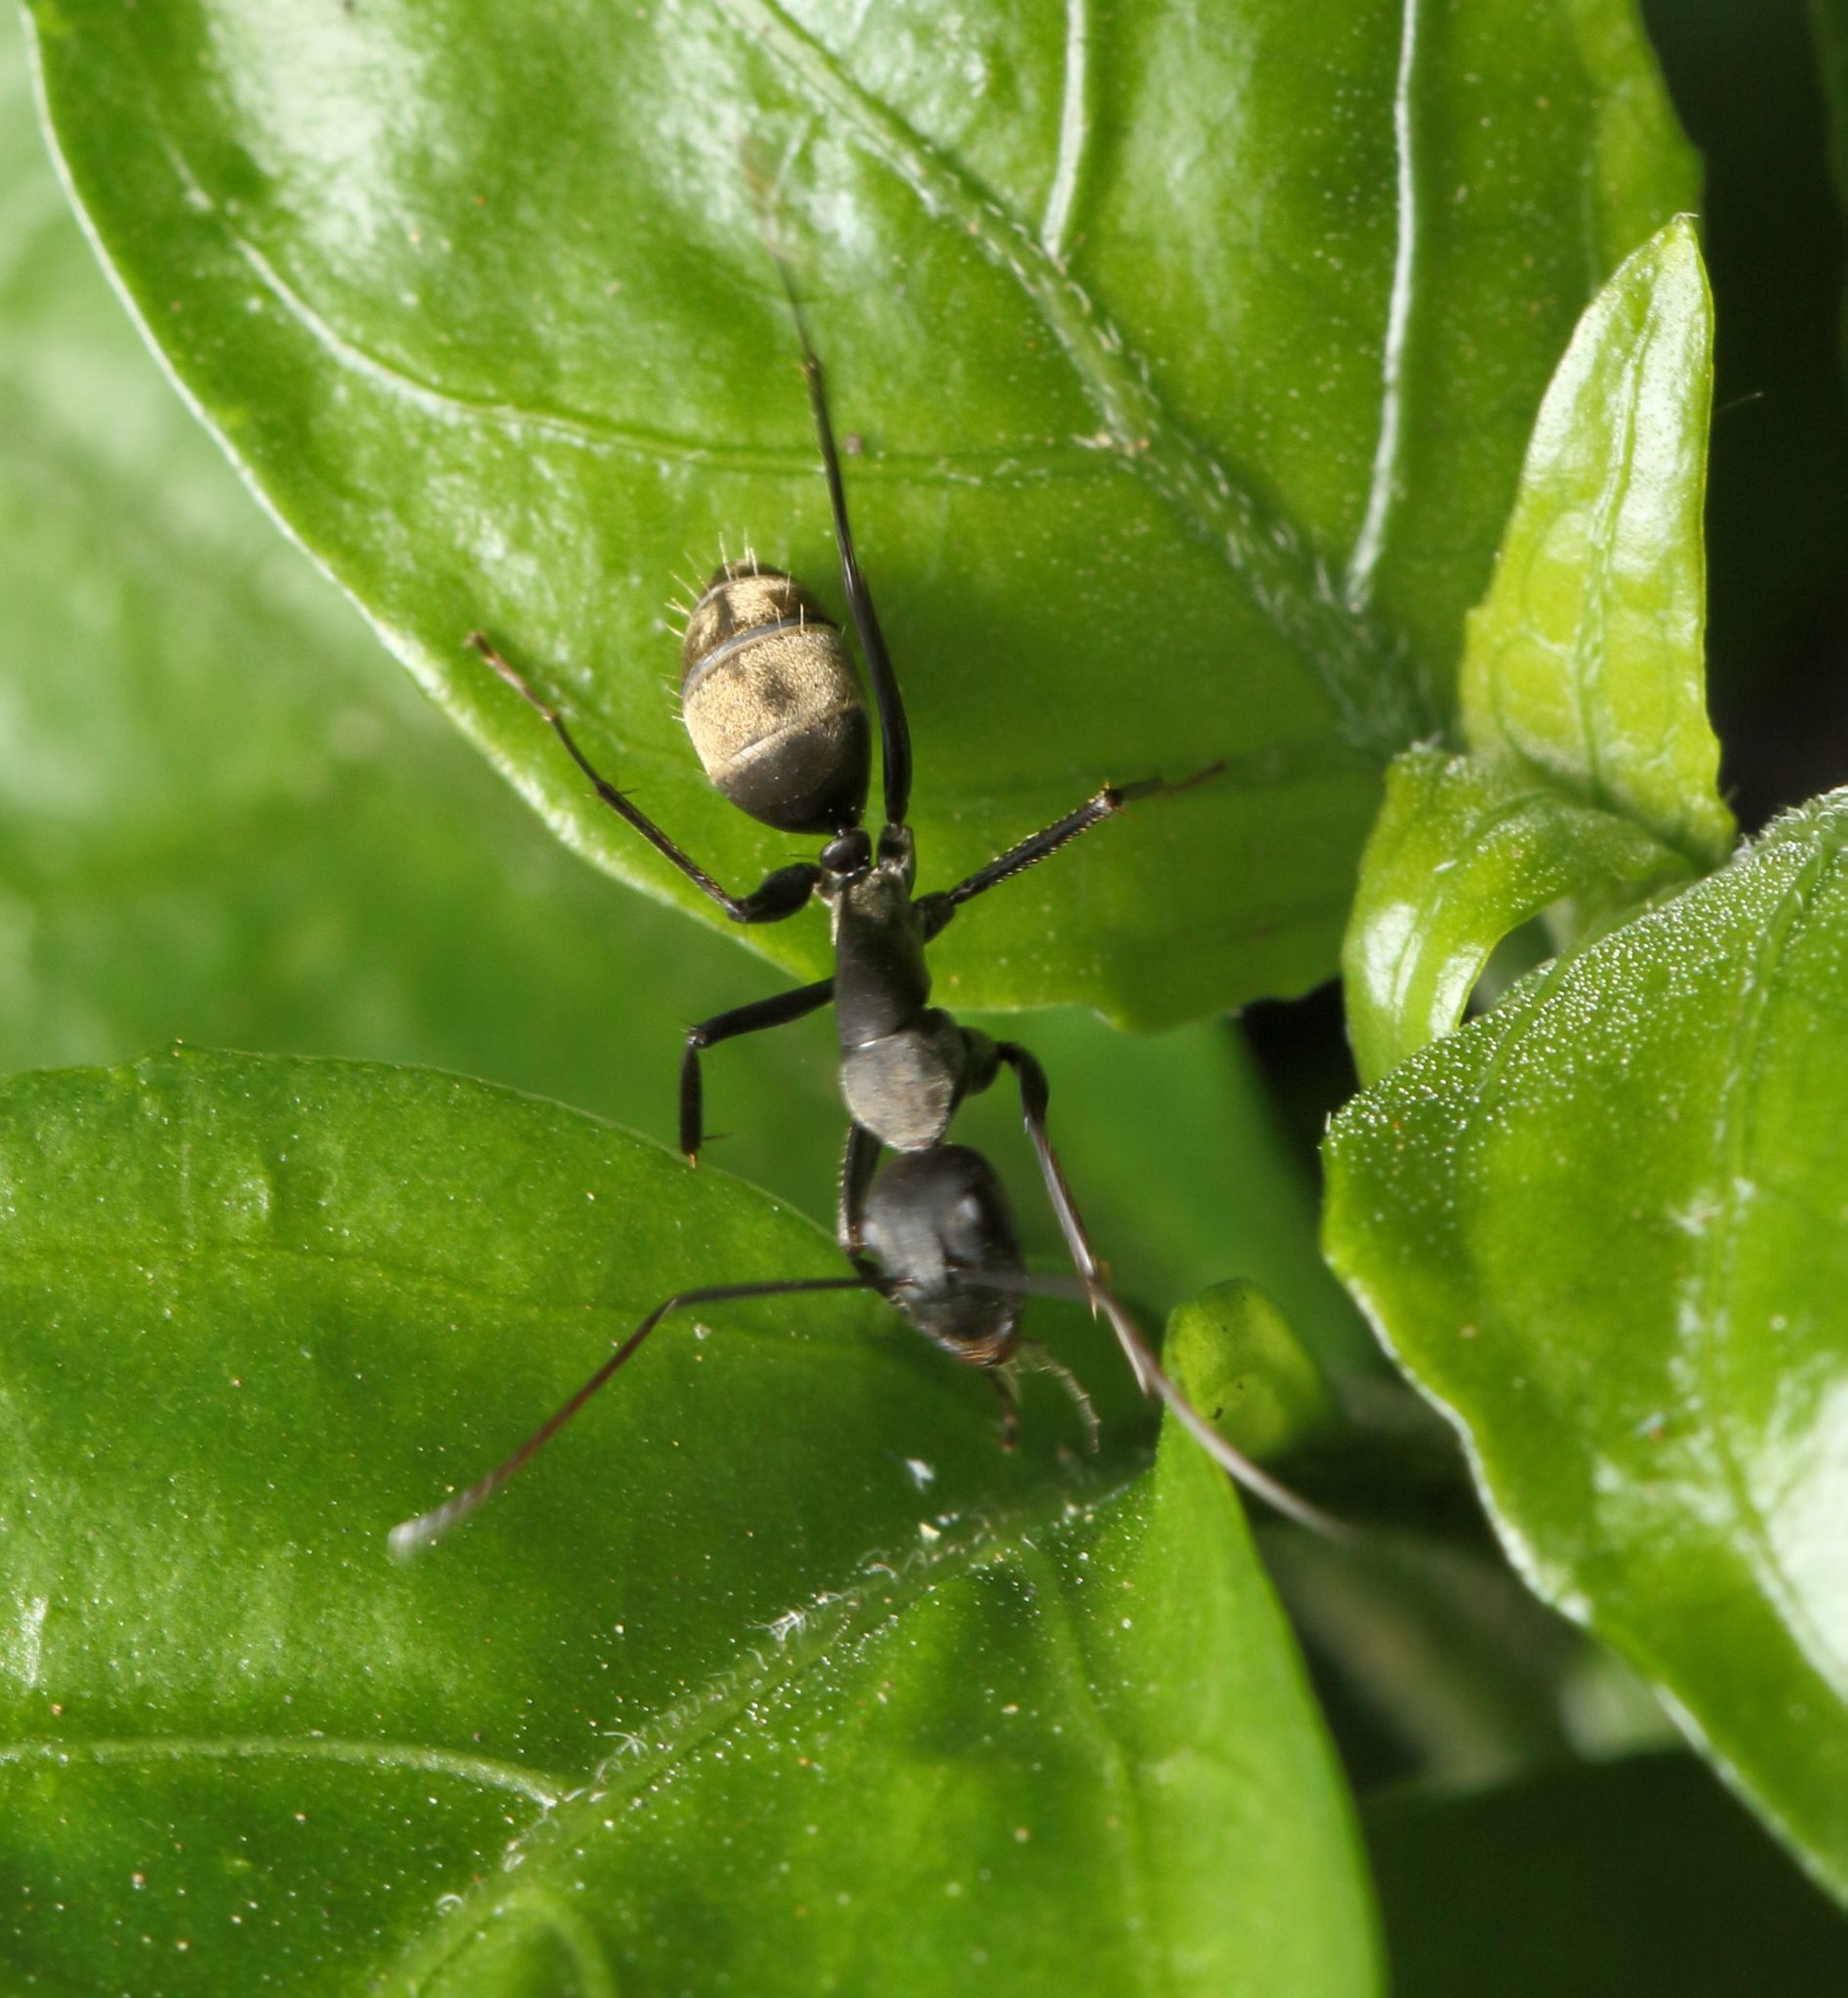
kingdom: Animalia
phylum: Arthropoda
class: Insecta
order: Hymenoptera
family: Formicidae
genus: Camponotus
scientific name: Camponotus cinctellus
